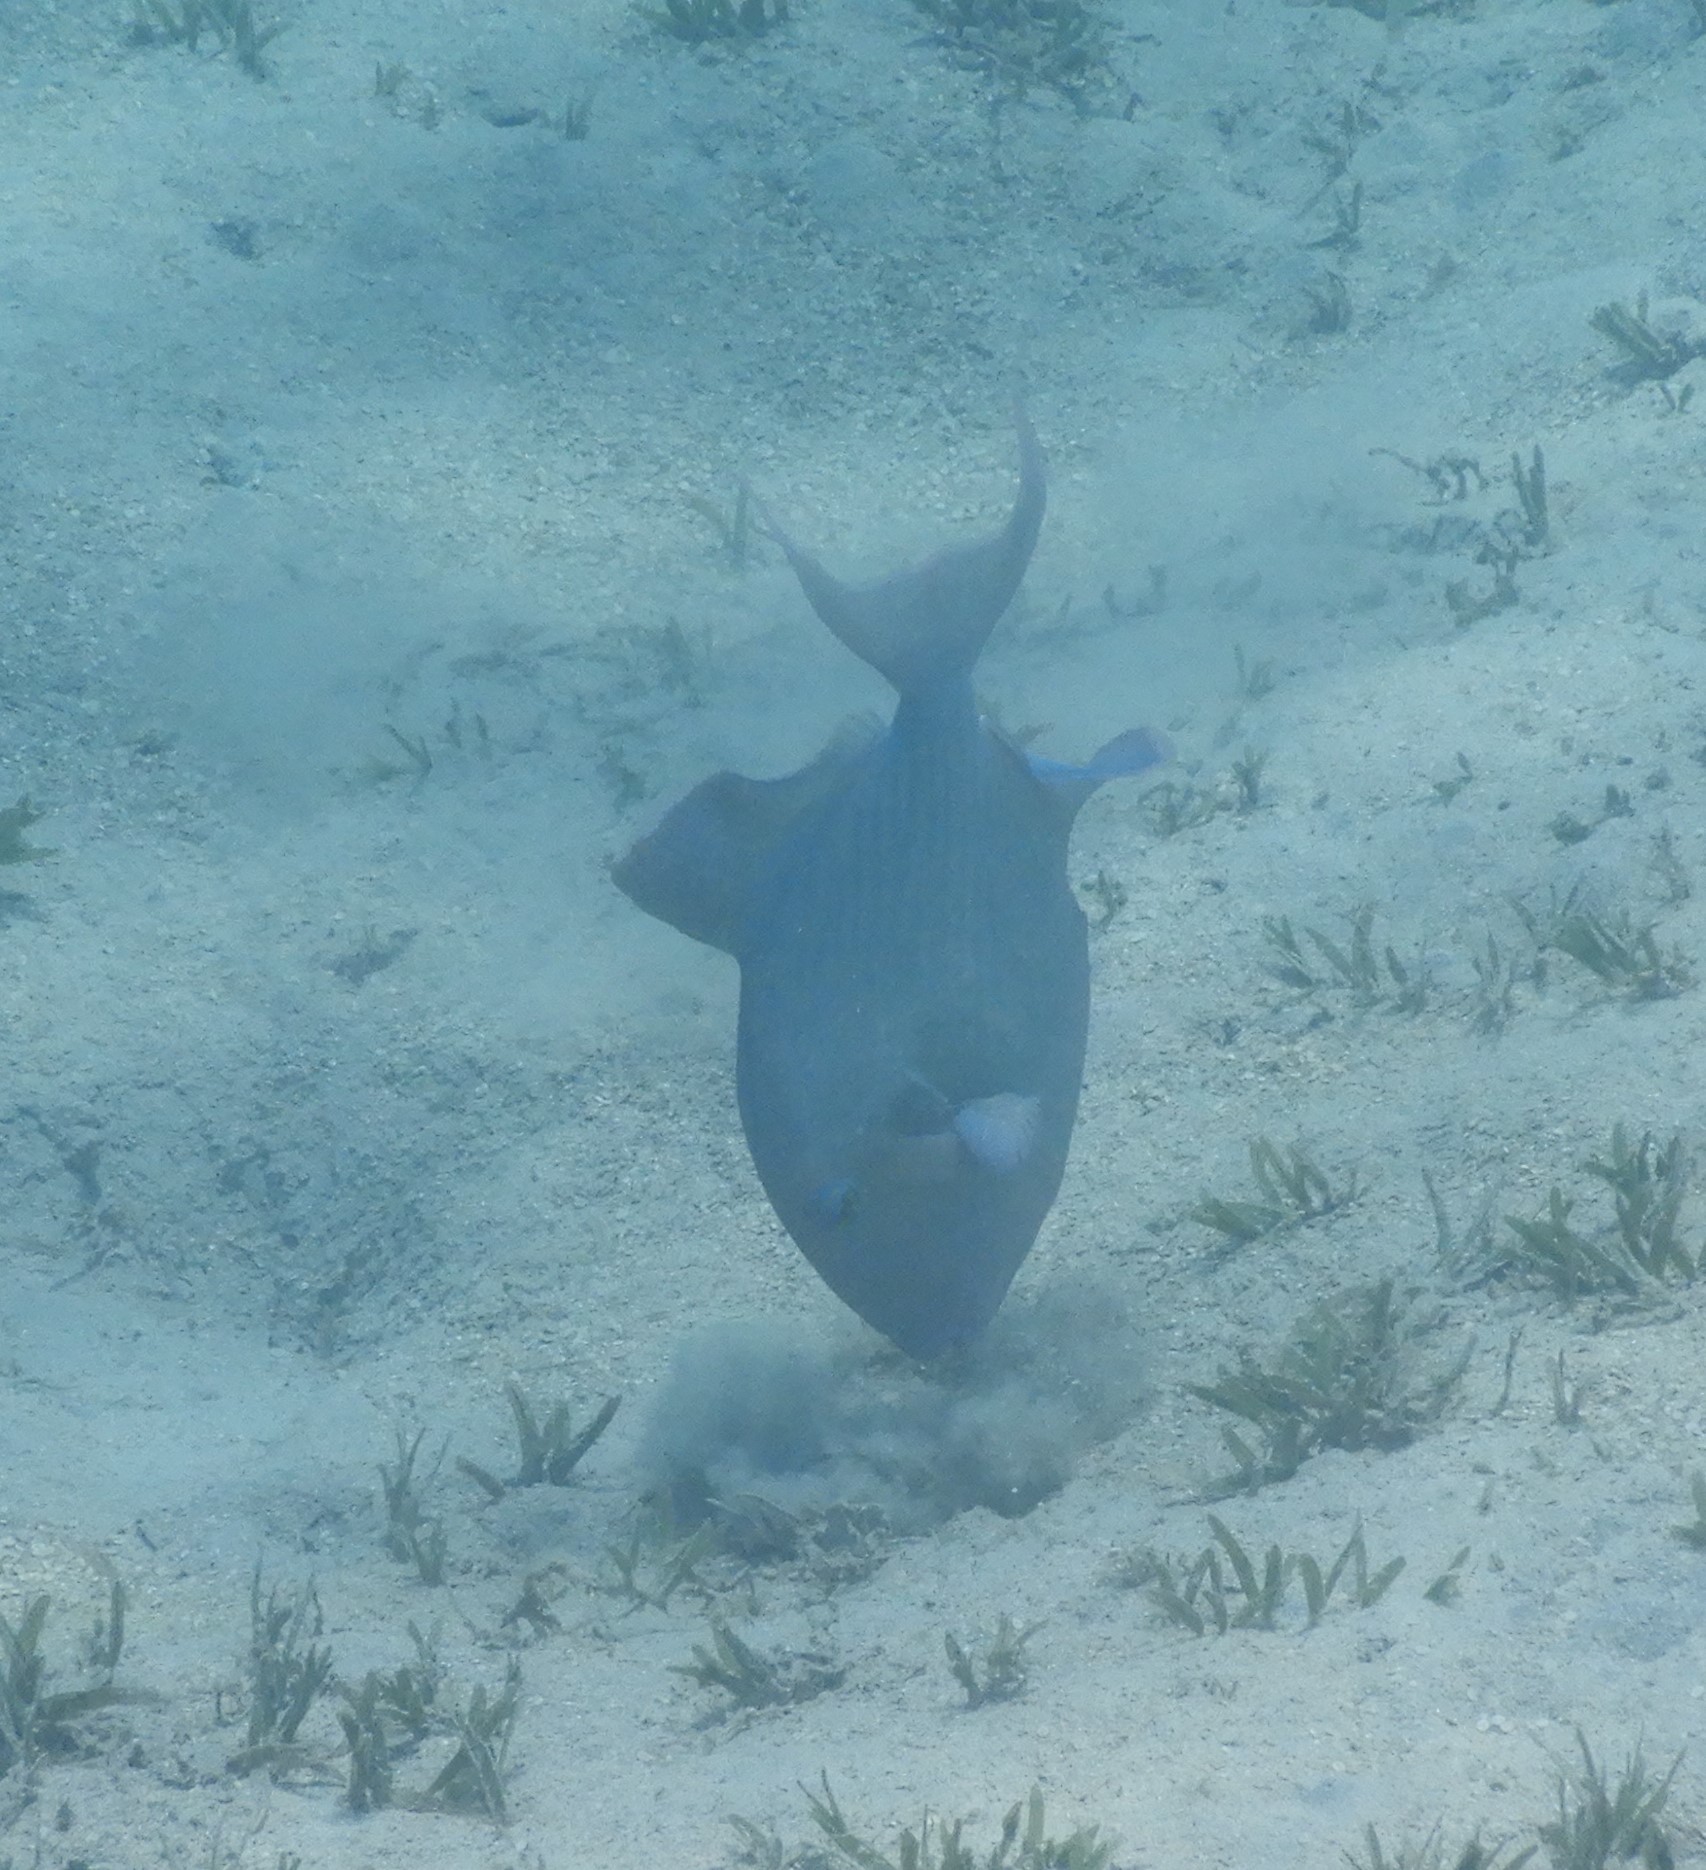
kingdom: Animalia
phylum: Chordata
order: Tetraodontiformes
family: Balistidae
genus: Pseudobalistes
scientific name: Pseudobalistes fuscus
